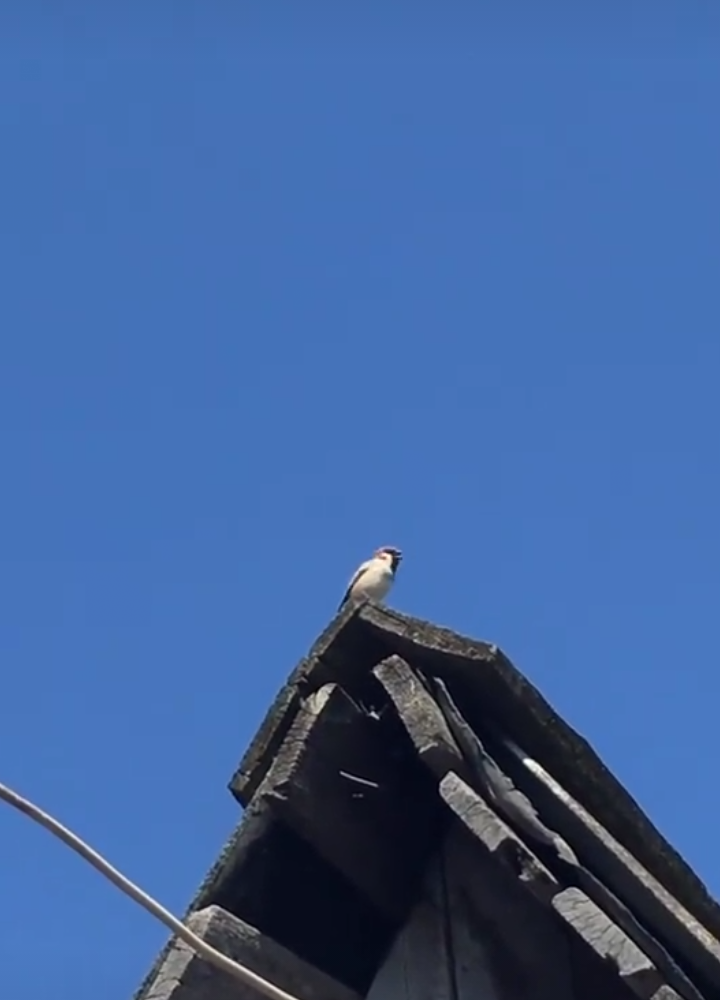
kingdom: Animalia
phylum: Chordata
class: Aves
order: Passeriformes
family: Passeridae
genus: Passer
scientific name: Passer montanus
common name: Eurasian tree sparrow
